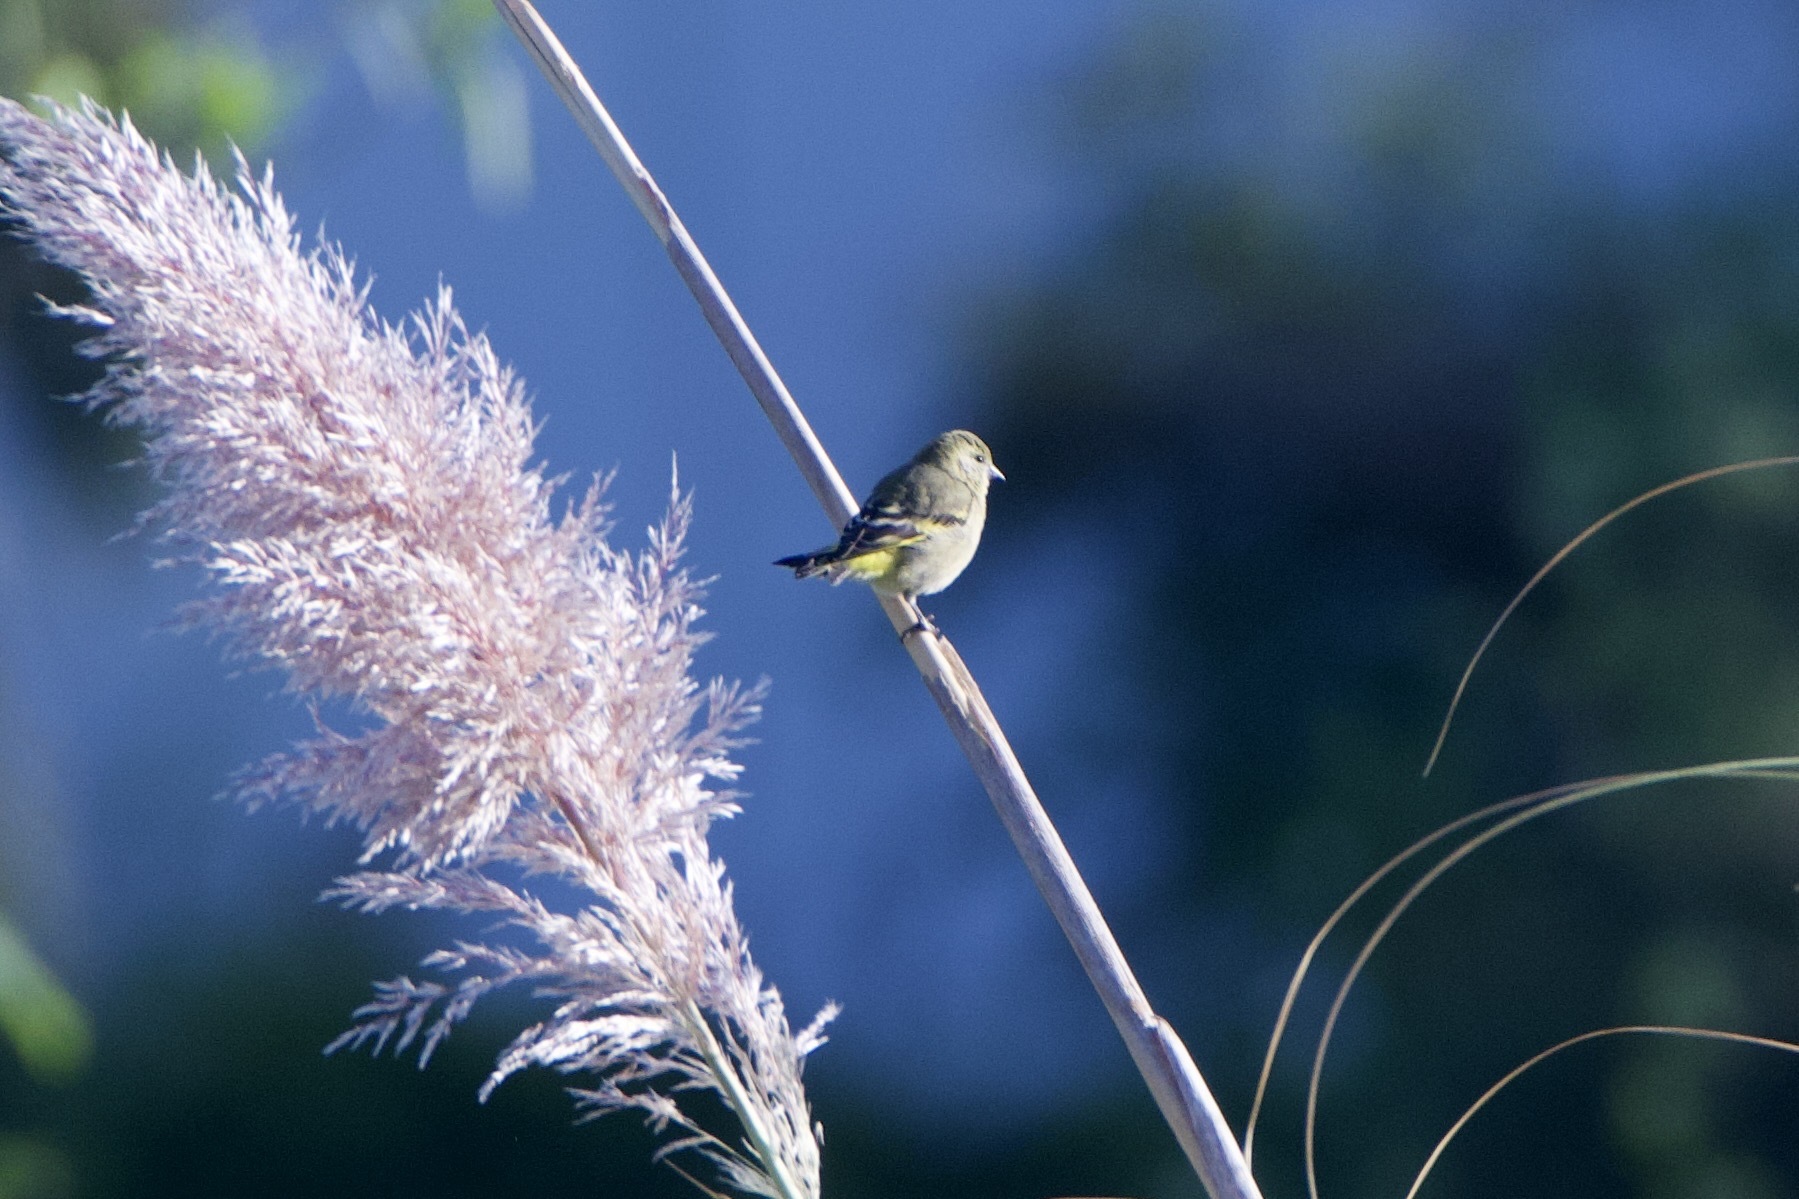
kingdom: Animalia
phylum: Chordata
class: Aves
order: Passeriformes
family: Fringillidae
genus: Spinus
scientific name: Spinus magellanicus
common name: Hooded siskin
